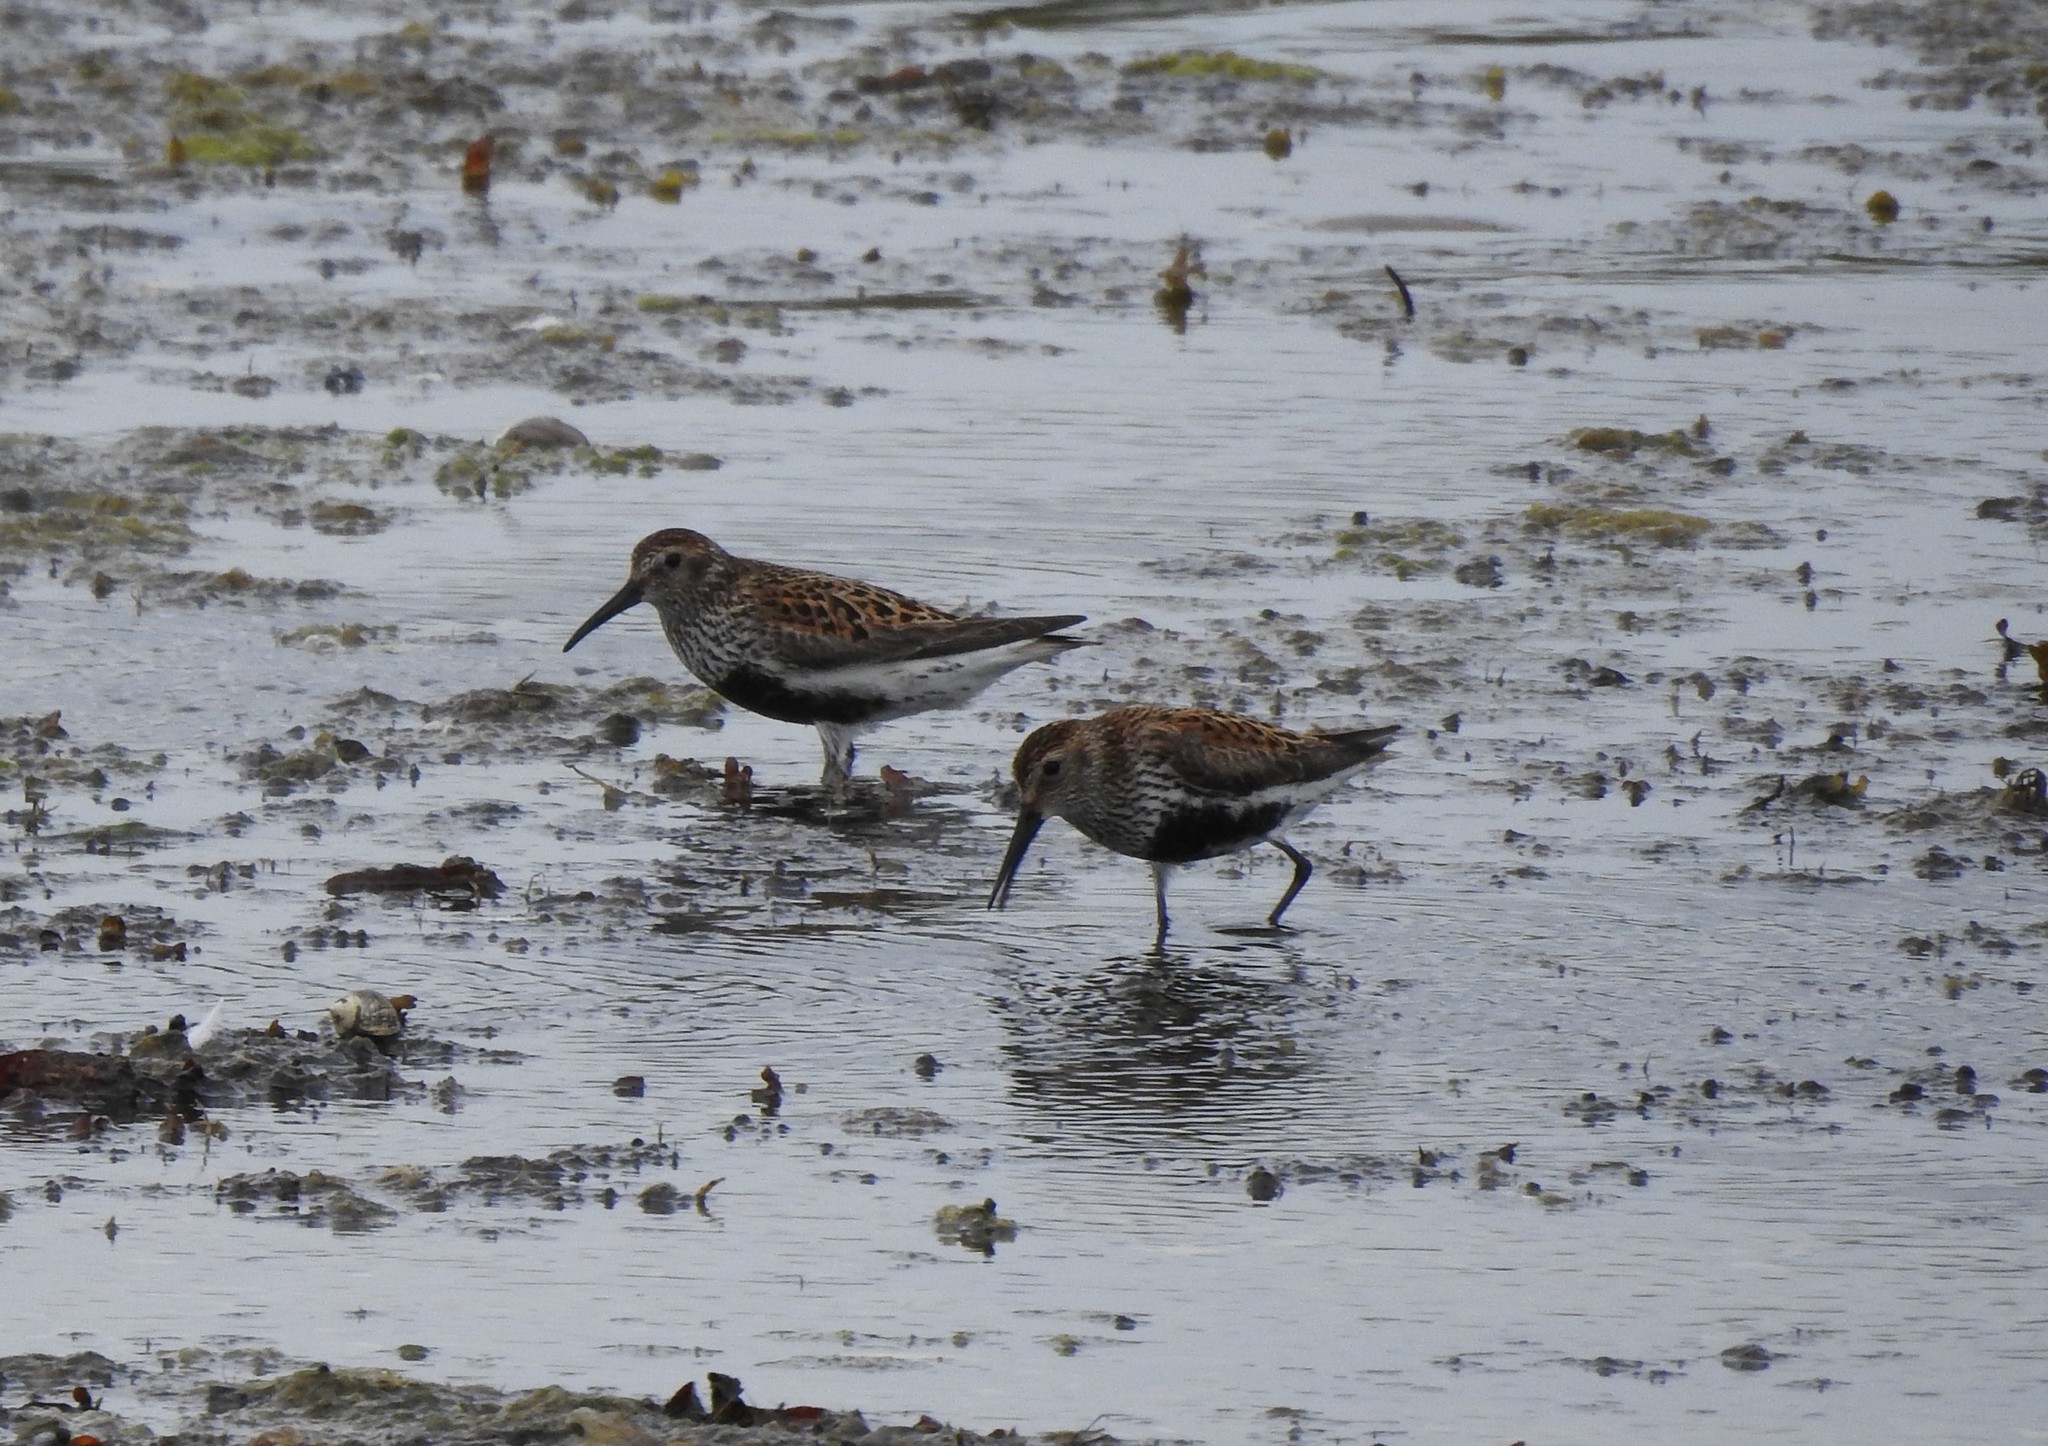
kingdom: Animalia
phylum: Chordata
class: Aves
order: Charadriiformes
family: Scolopacidae
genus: Calidris
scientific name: Calidris alpina
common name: Dunlin
